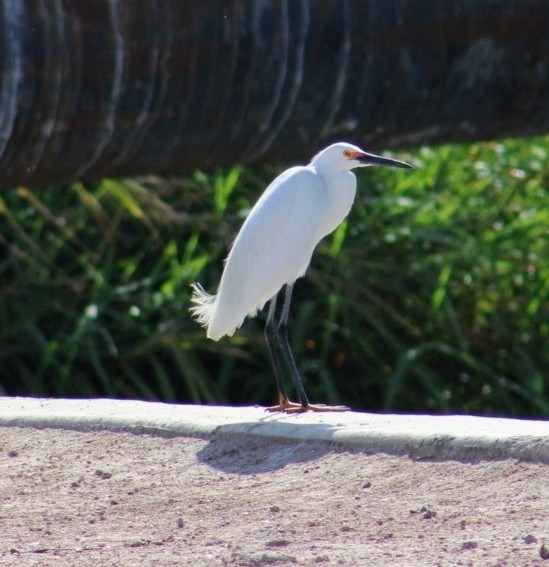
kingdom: Animalia
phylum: Chordata
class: Aves
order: Pelecaniformes
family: Ardeidae
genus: Egretta
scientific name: Egretta thula
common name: Snowy egret
